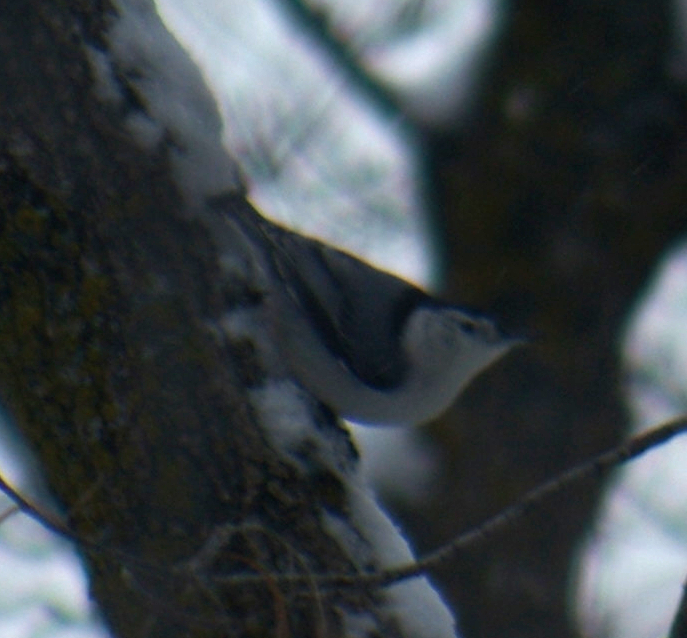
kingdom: Animalia
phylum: Chordata
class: Aves
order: Passeriformes
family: Sittidae
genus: Sitta
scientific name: Sitta carolinensis
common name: White-breasted nuthatch
